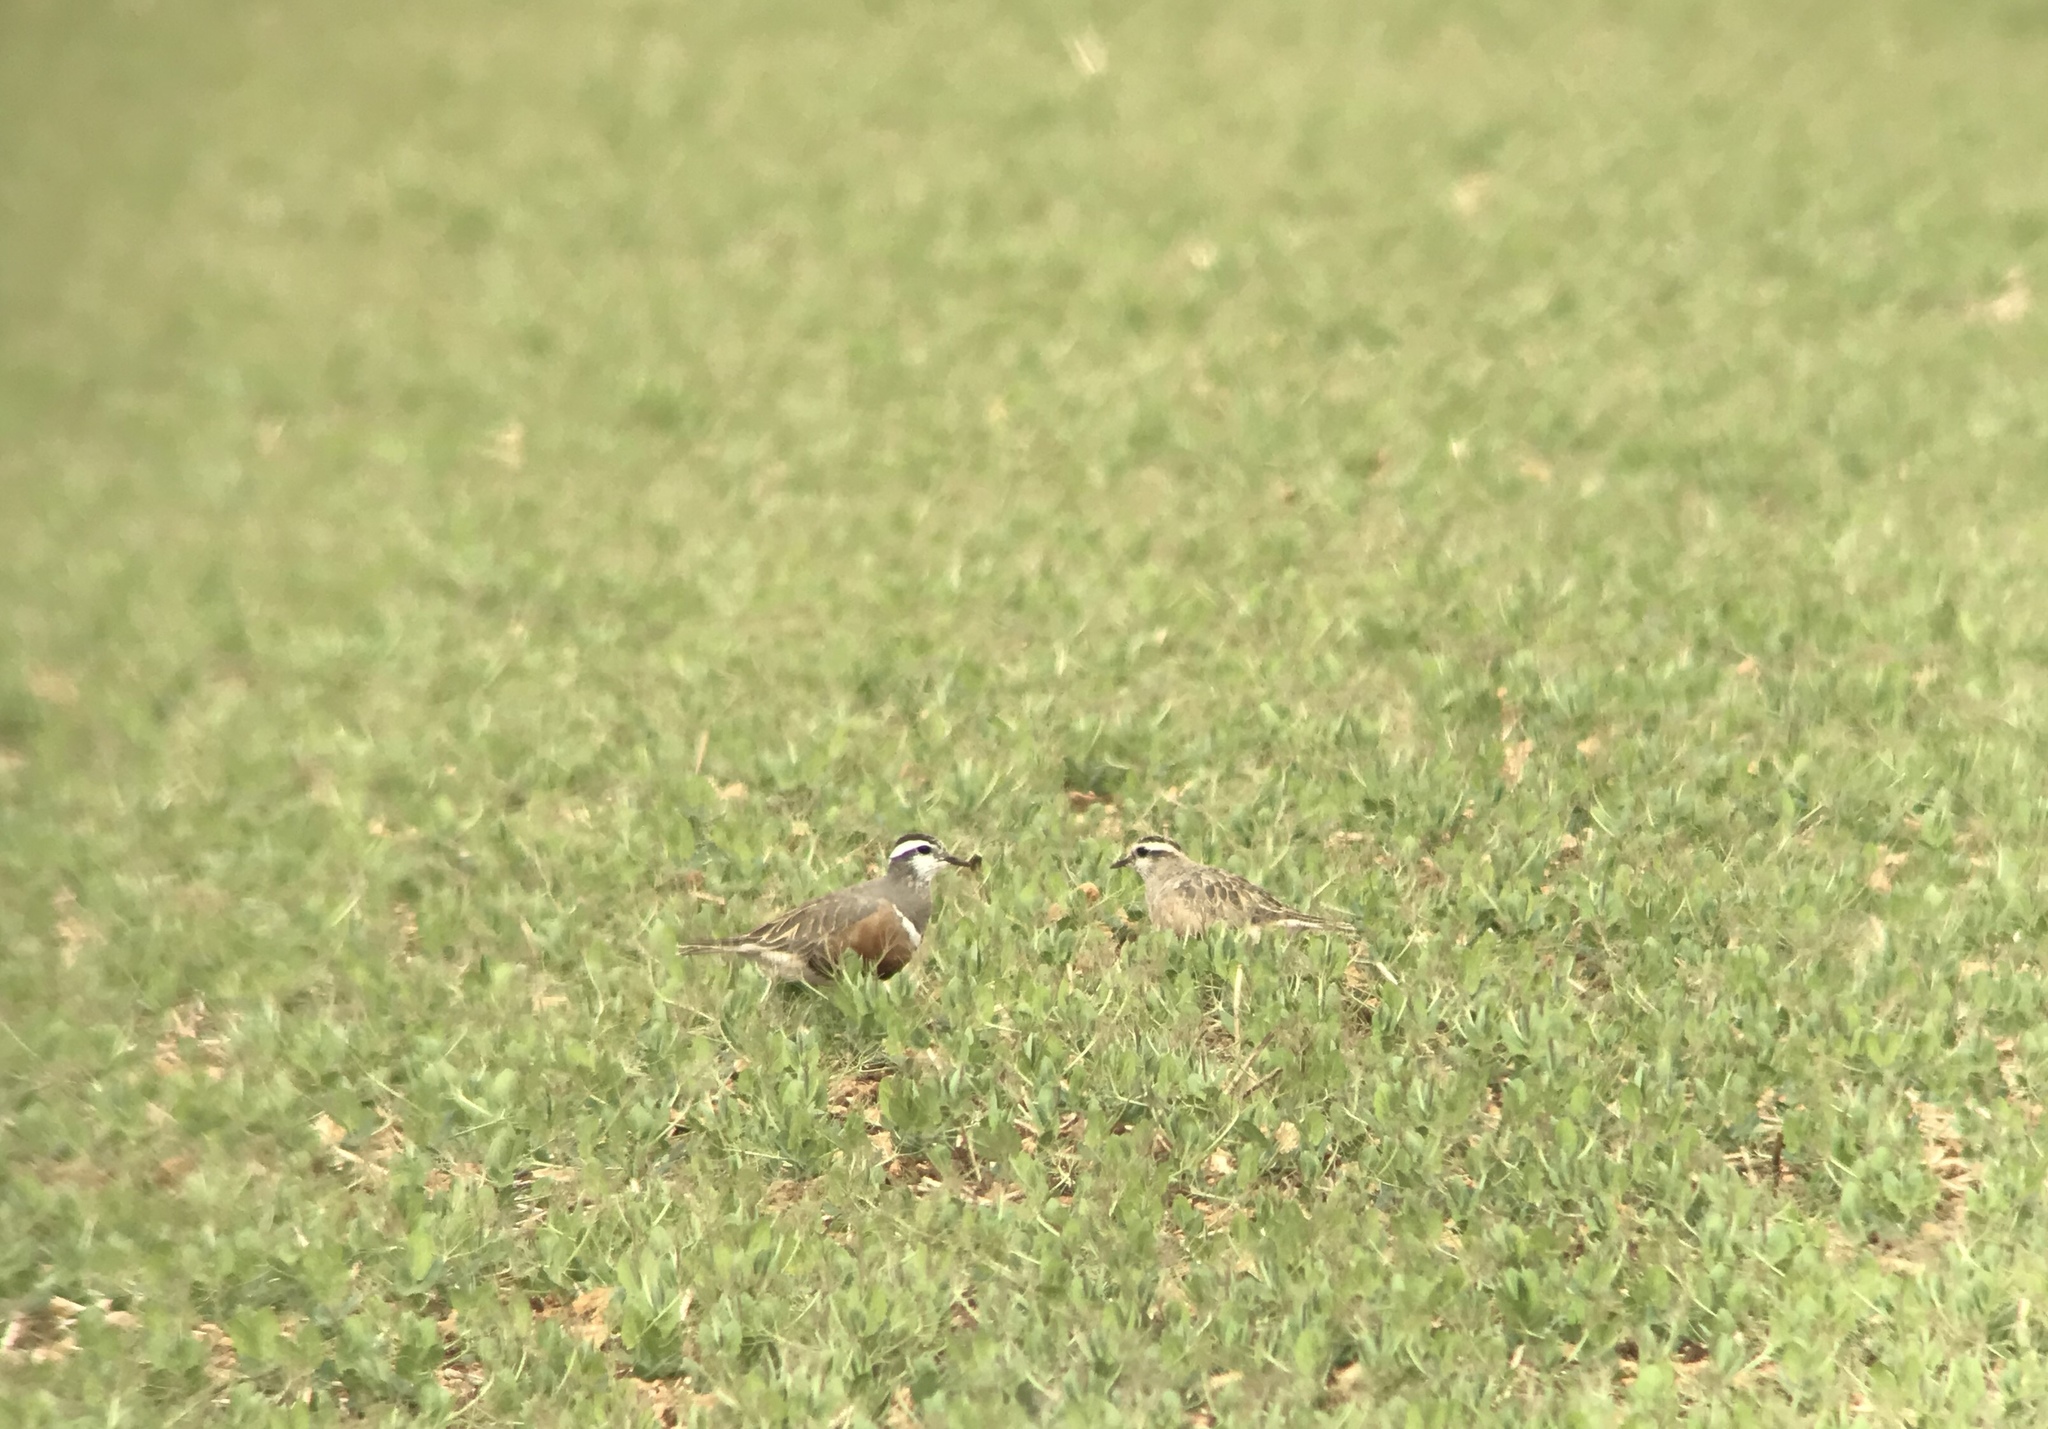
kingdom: Animalia
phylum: Chordata
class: Aves
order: Charadriiformes
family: Charadriidae
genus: Charadrius
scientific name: Charadrius morinellus
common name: Eurasian dotterel
